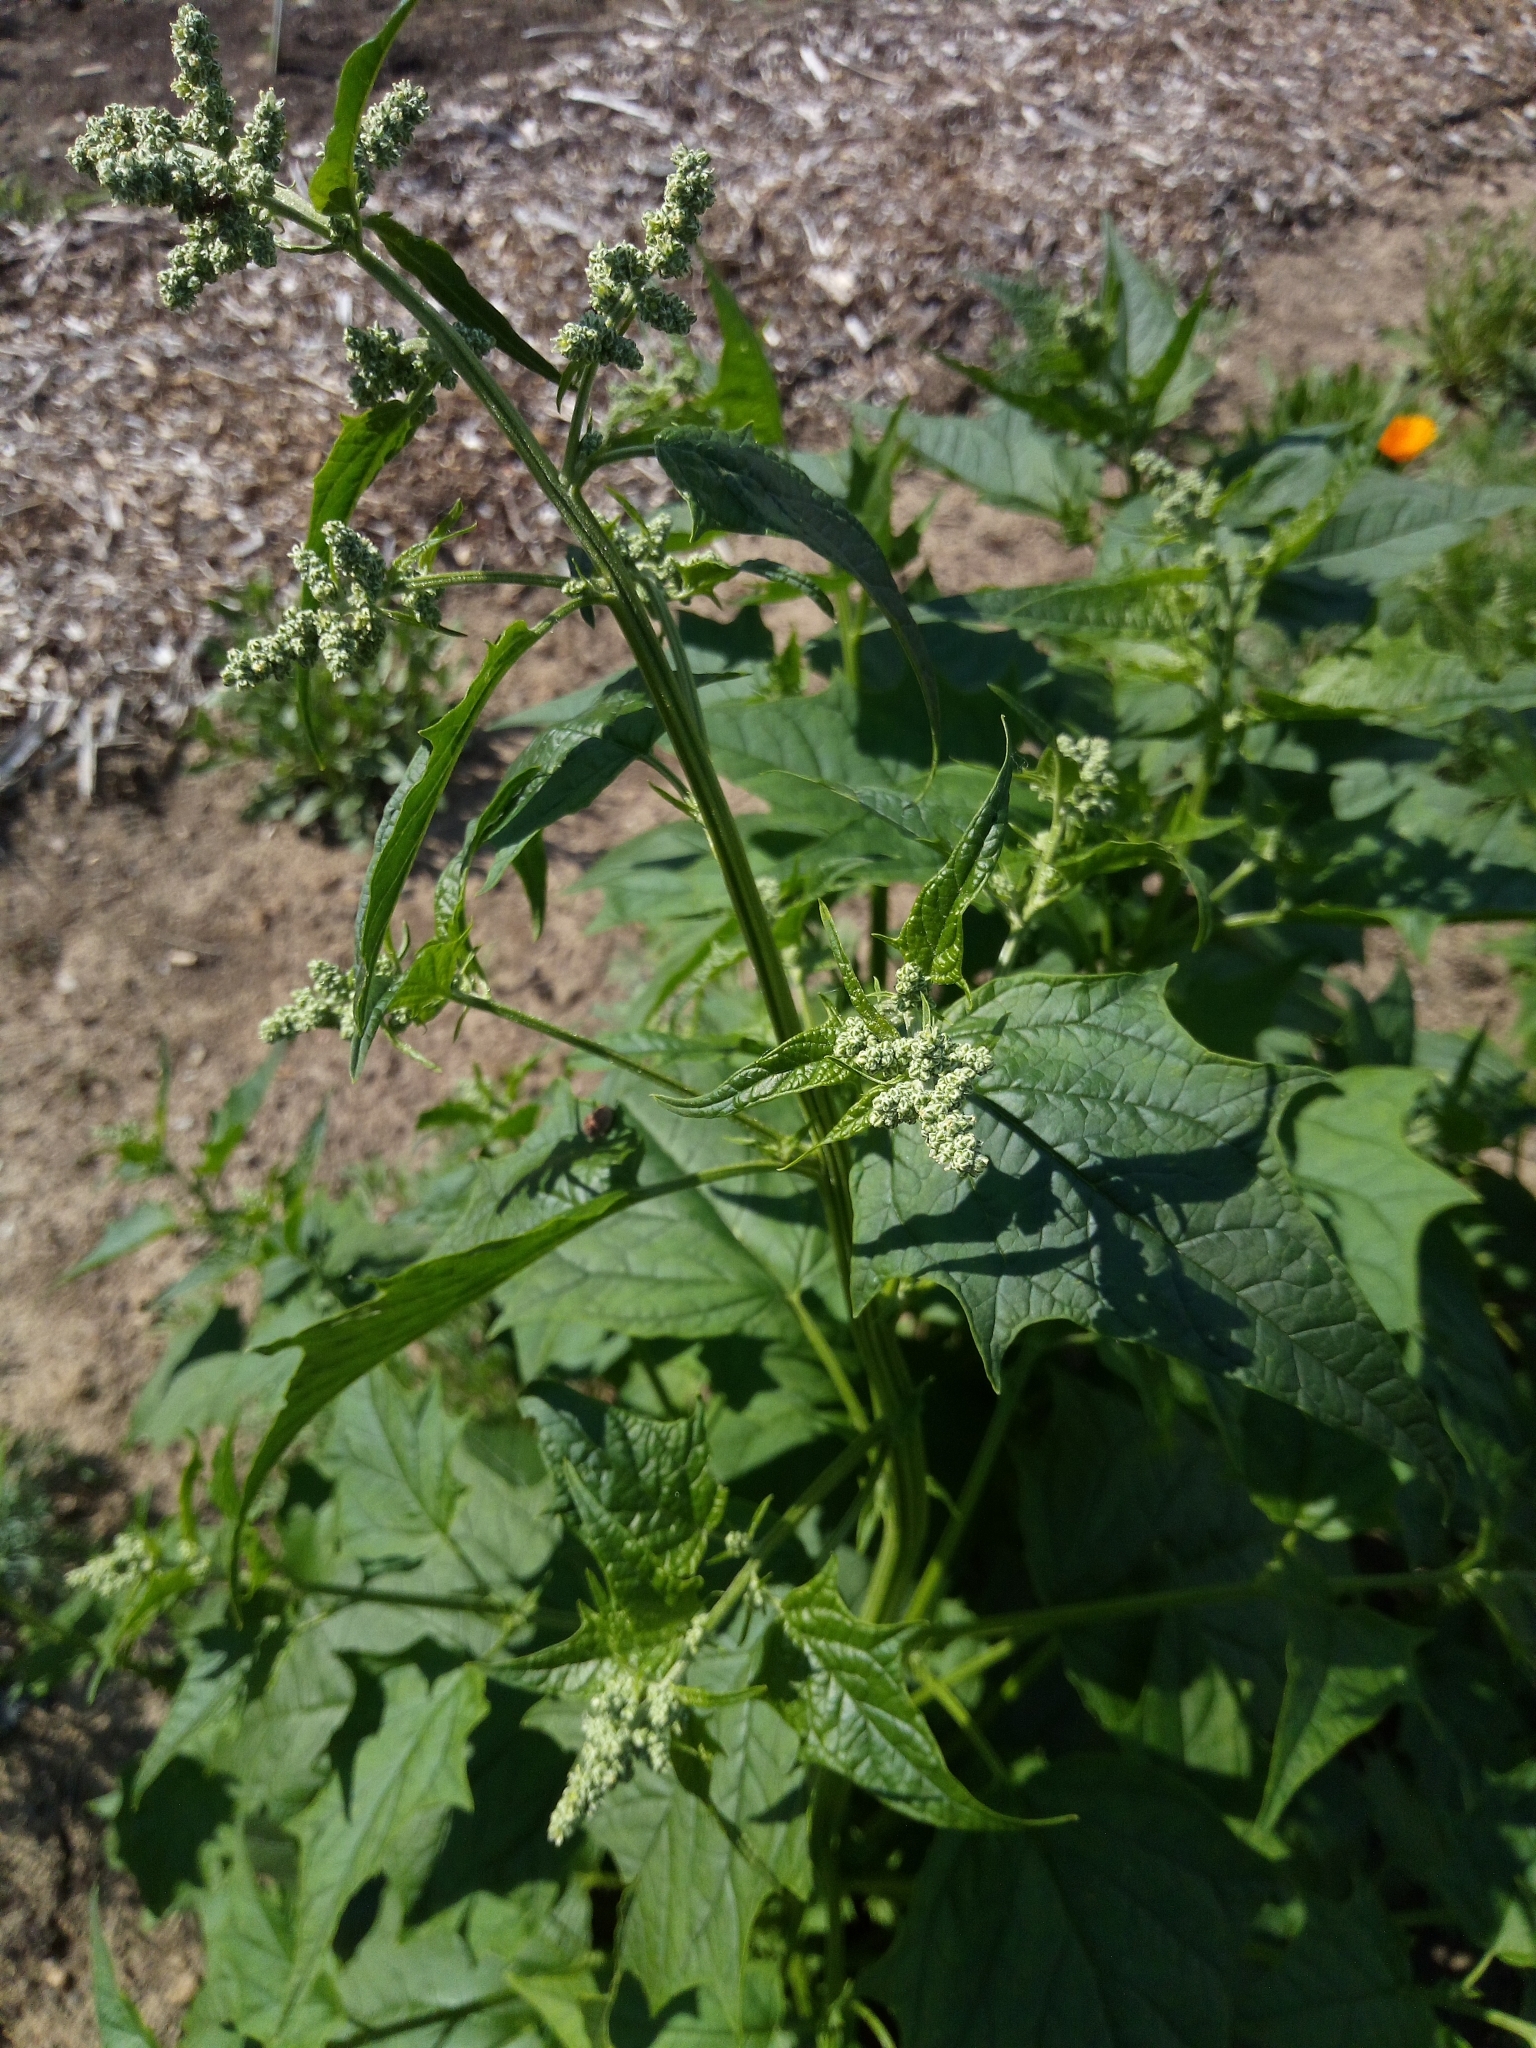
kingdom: Plantae
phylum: Tracheophyta
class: Magnoliopsida
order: Caryophyllales
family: Amaranthaceae
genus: Chenopodiastrum
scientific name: Chenopodiastrum hybridum
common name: Mapleleaf goosefoot
